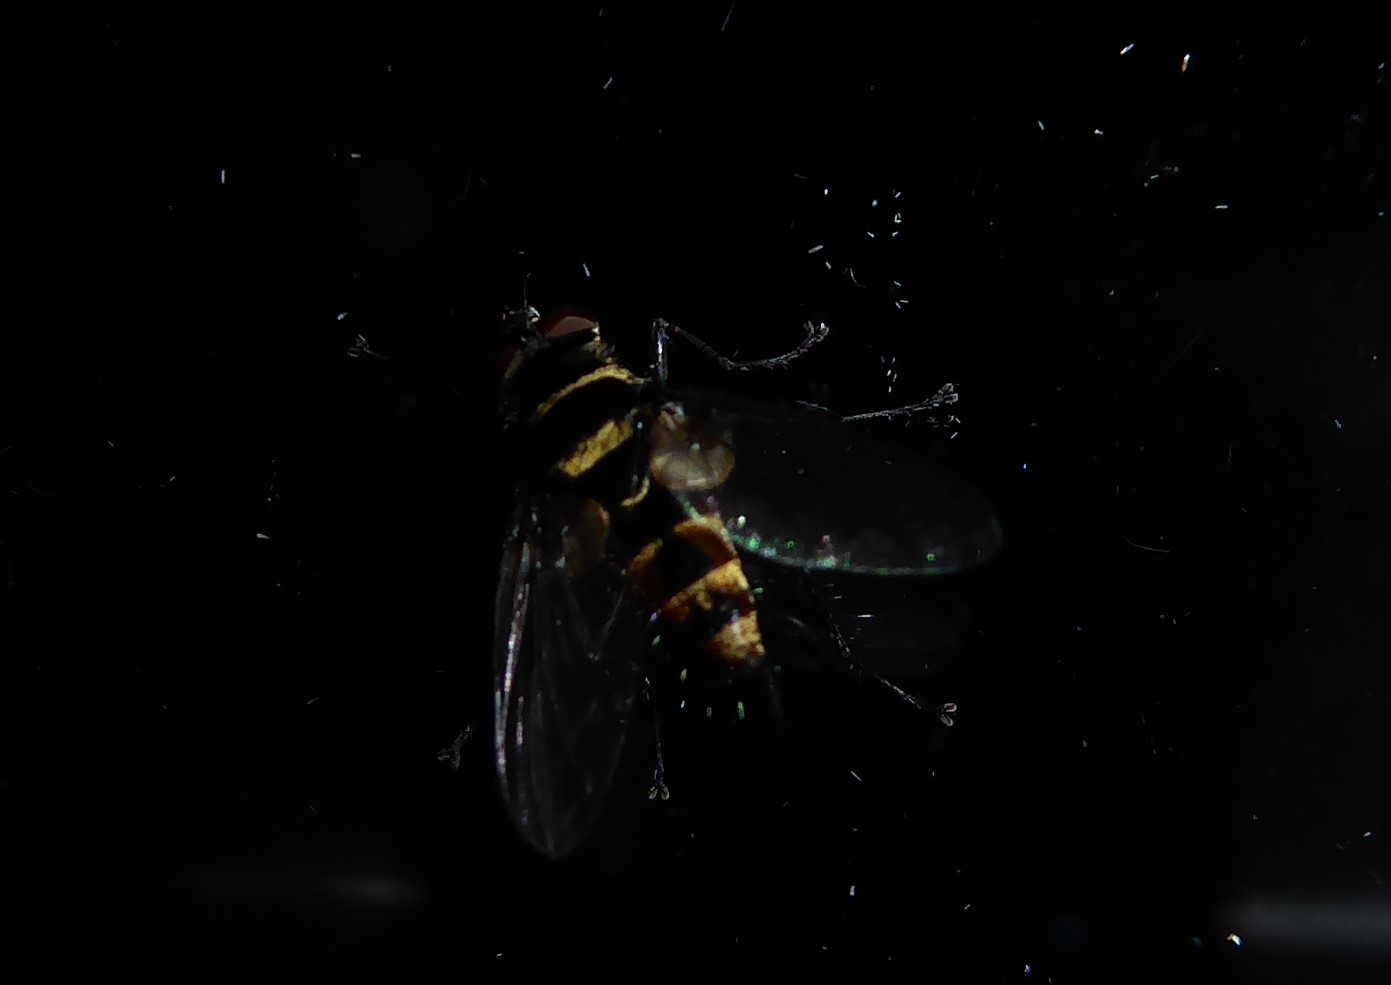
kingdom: Animalia
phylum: Arthropoda
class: Insecta
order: Diptera
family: Tachinidae
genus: Trigonospila
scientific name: Trigonospila brevifacies
